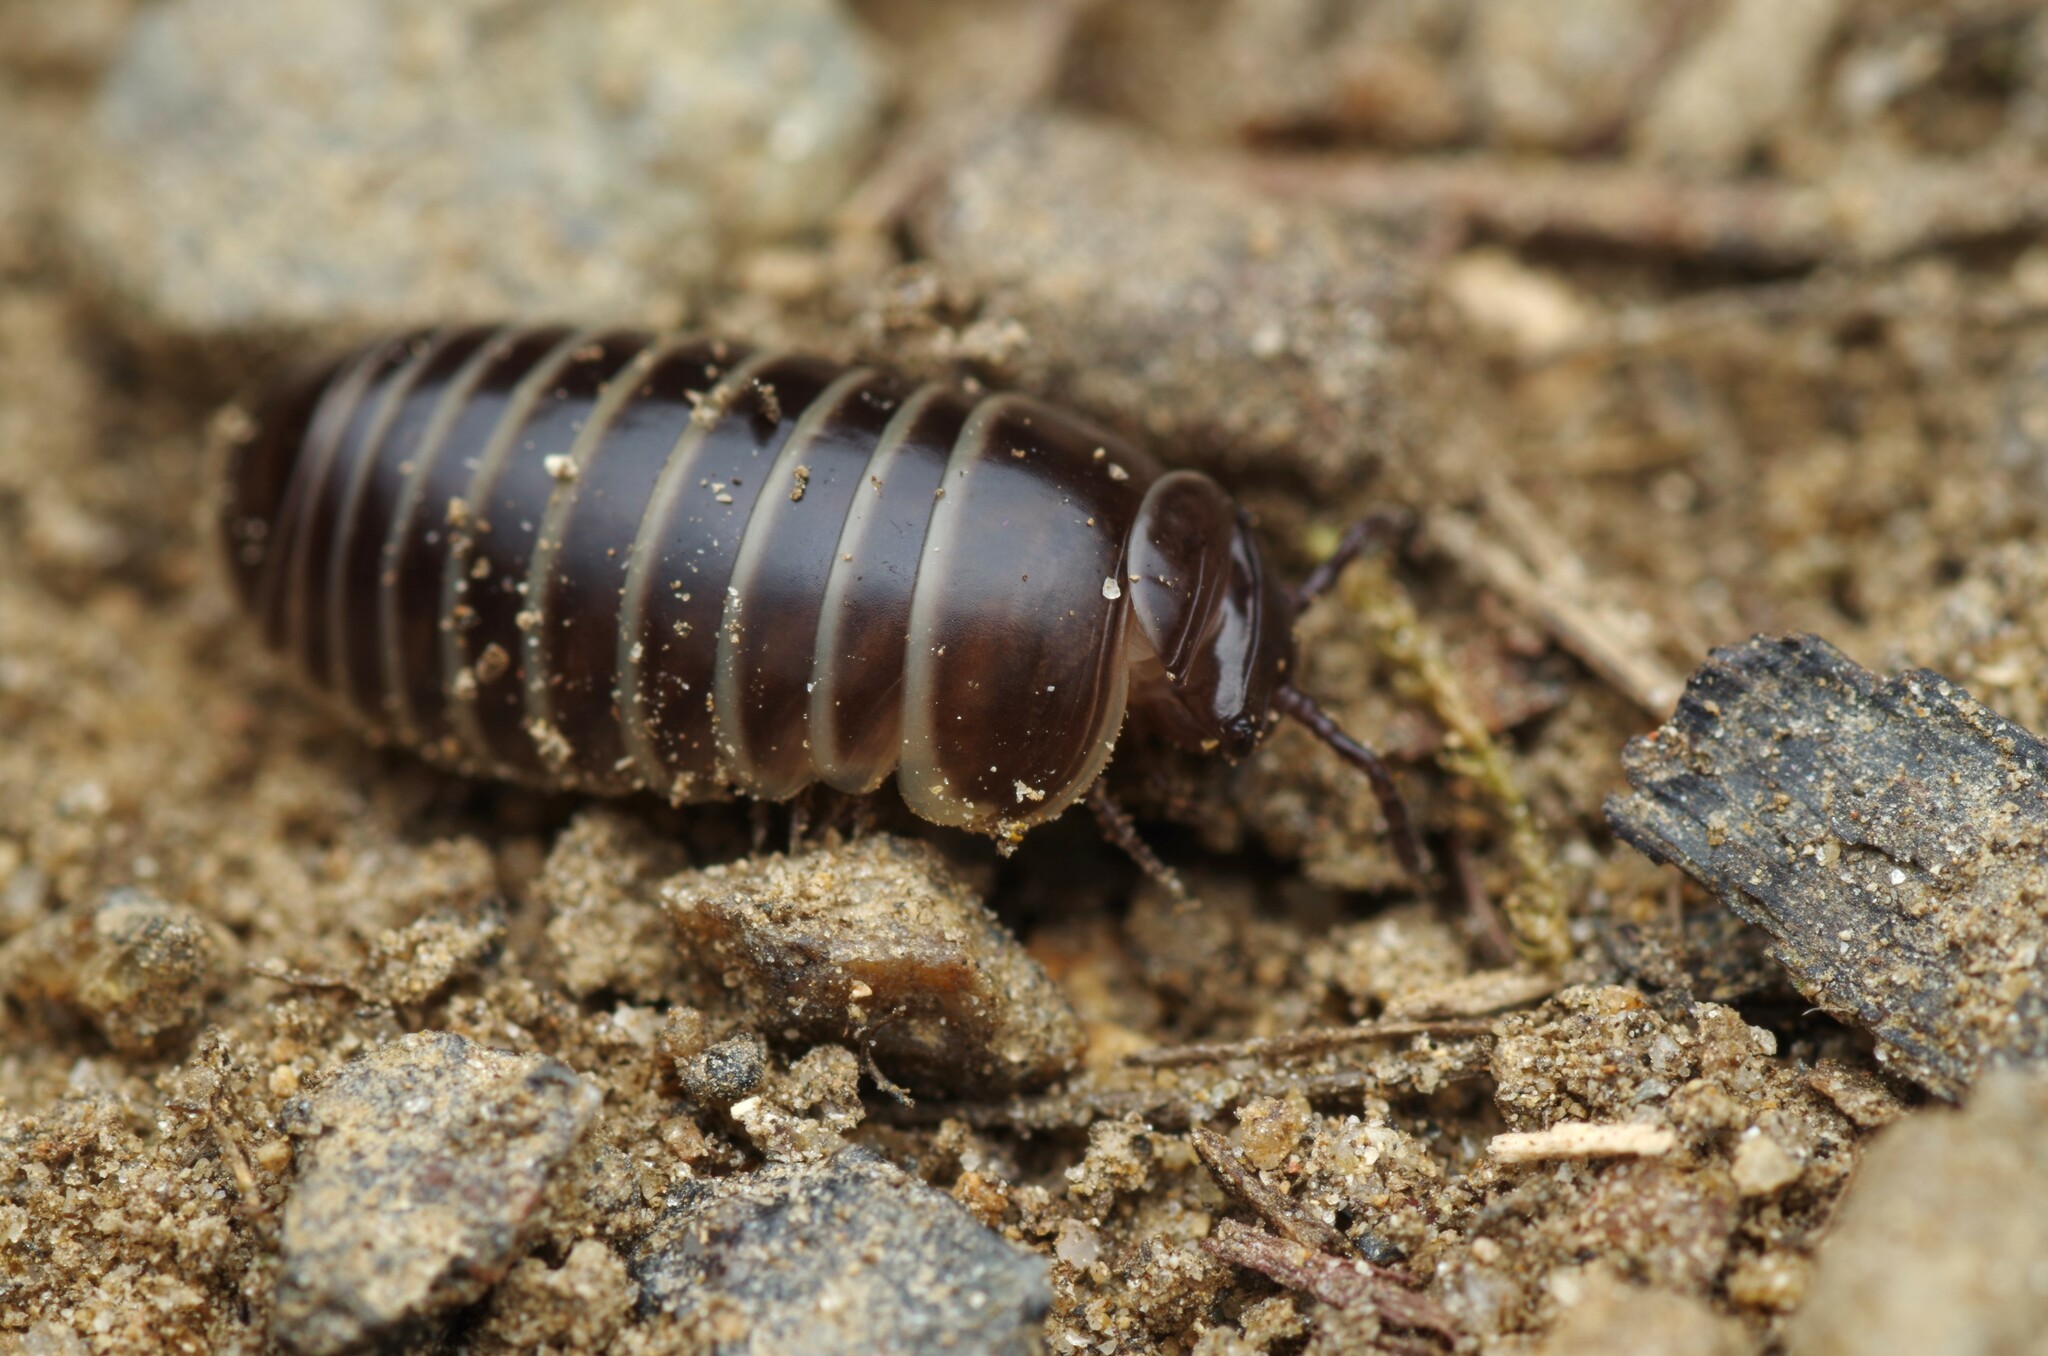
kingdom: Animalia
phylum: Arthropoda
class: Diplopoda
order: Glomerida
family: Glomeridae
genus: Glomeris
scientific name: Glomeris marginata
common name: Bordered pill millipede
